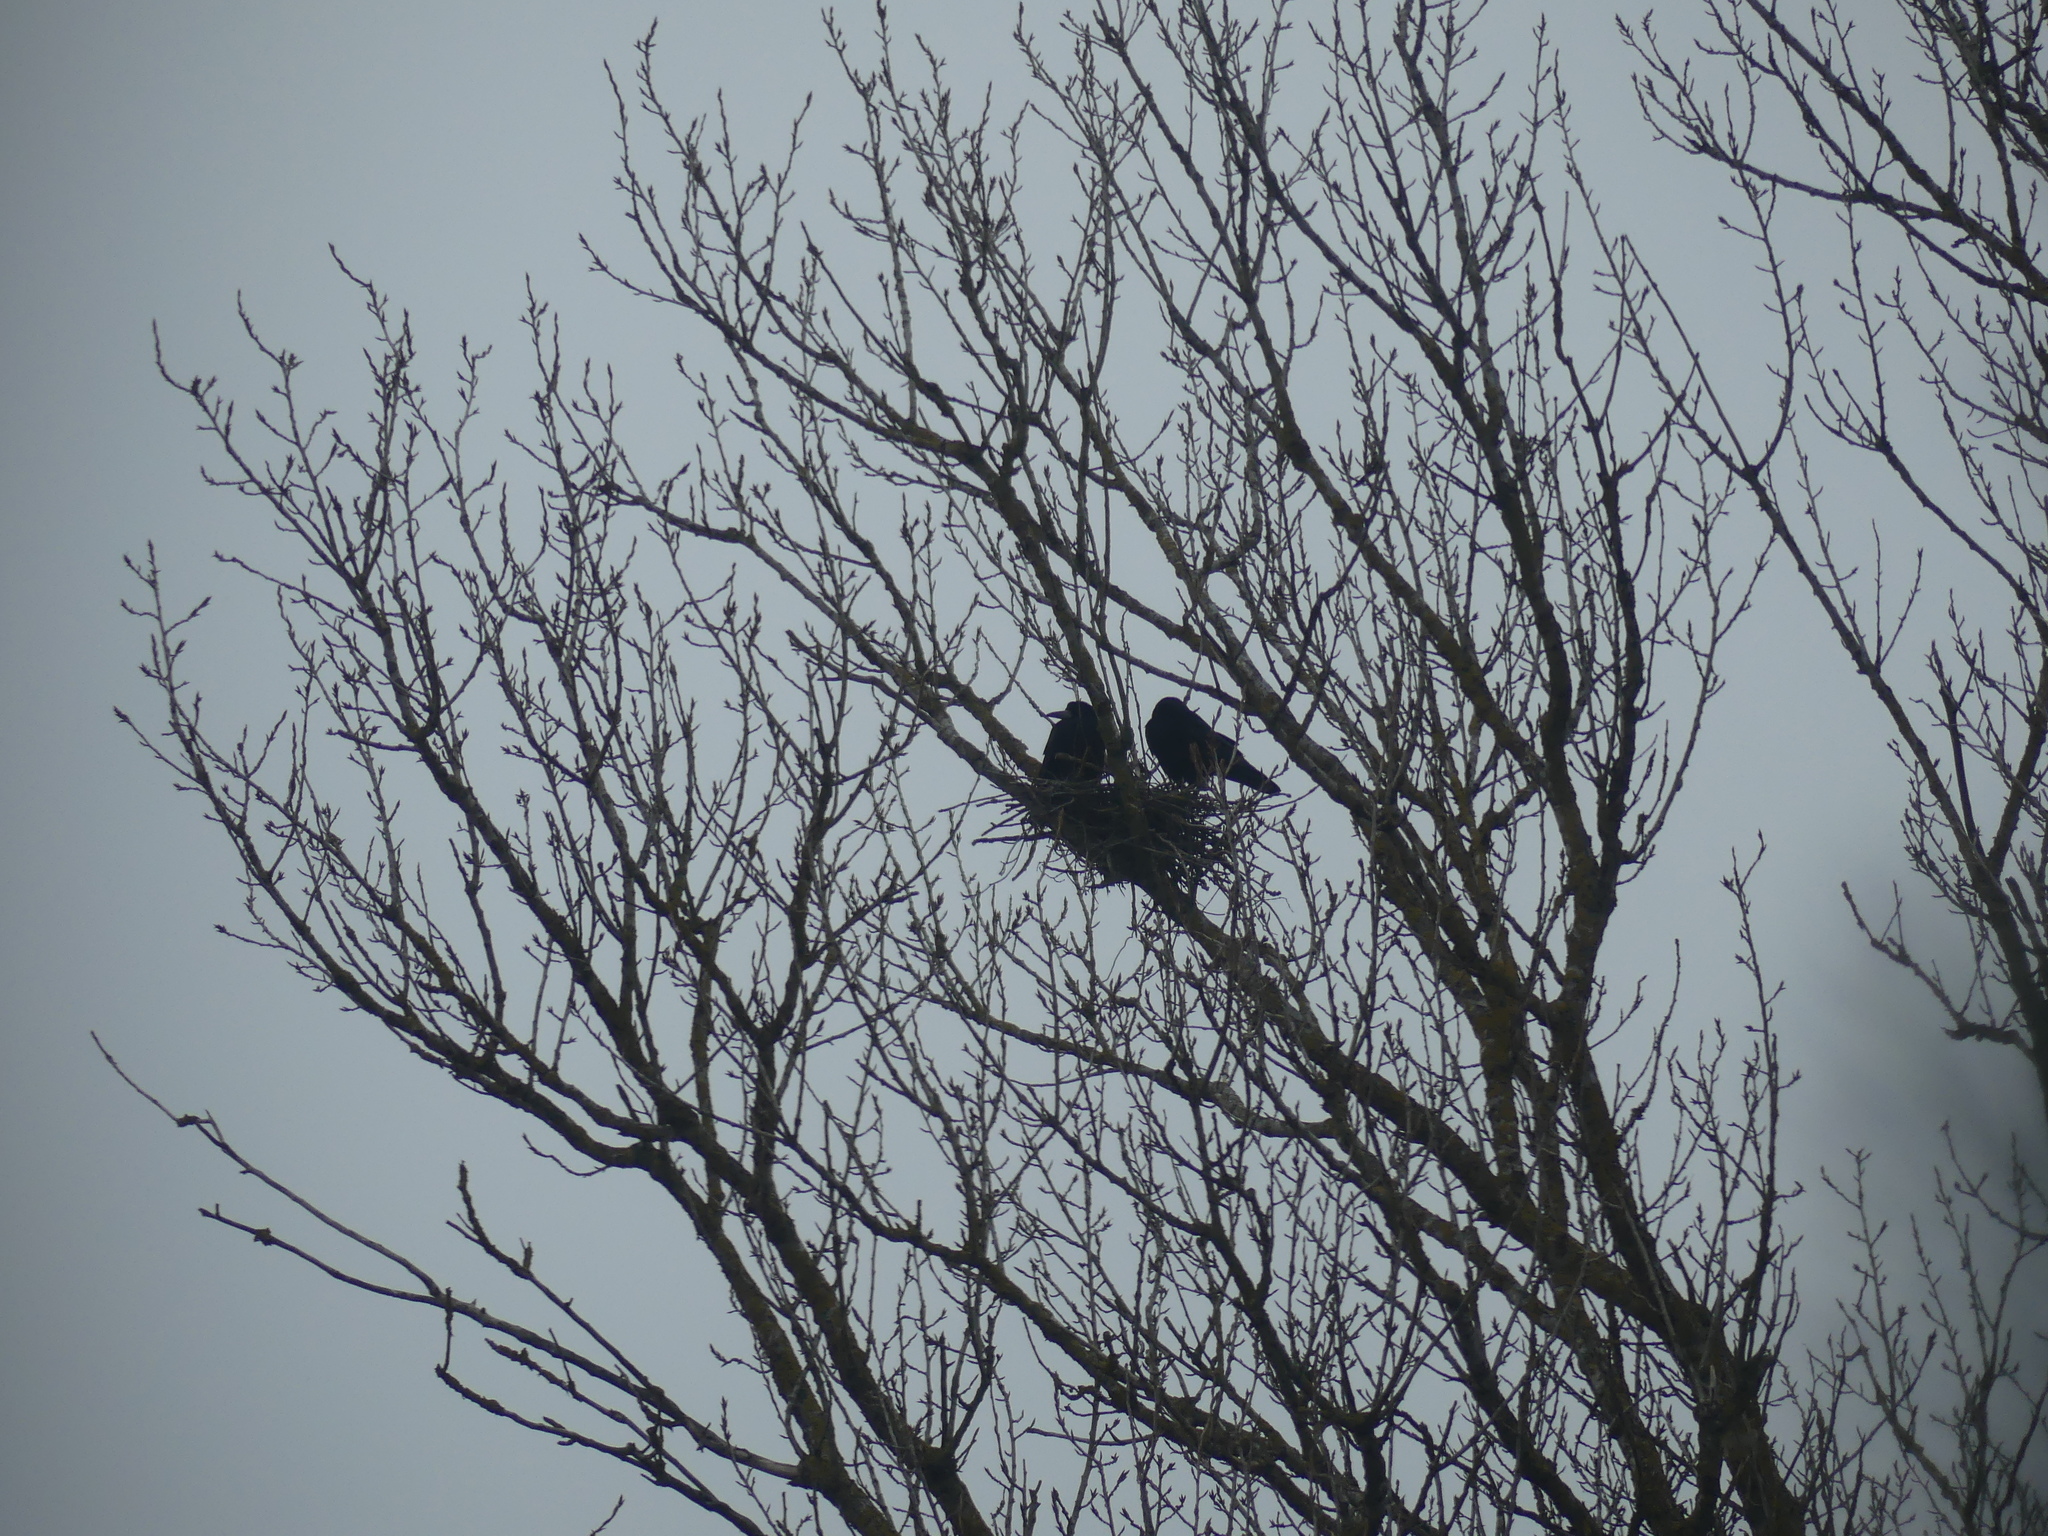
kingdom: Animalia
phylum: Chordata
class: Aves
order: Passeriformes
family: Corvidae
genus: Corvus
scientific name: Corvus frugilegus
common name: Rook
